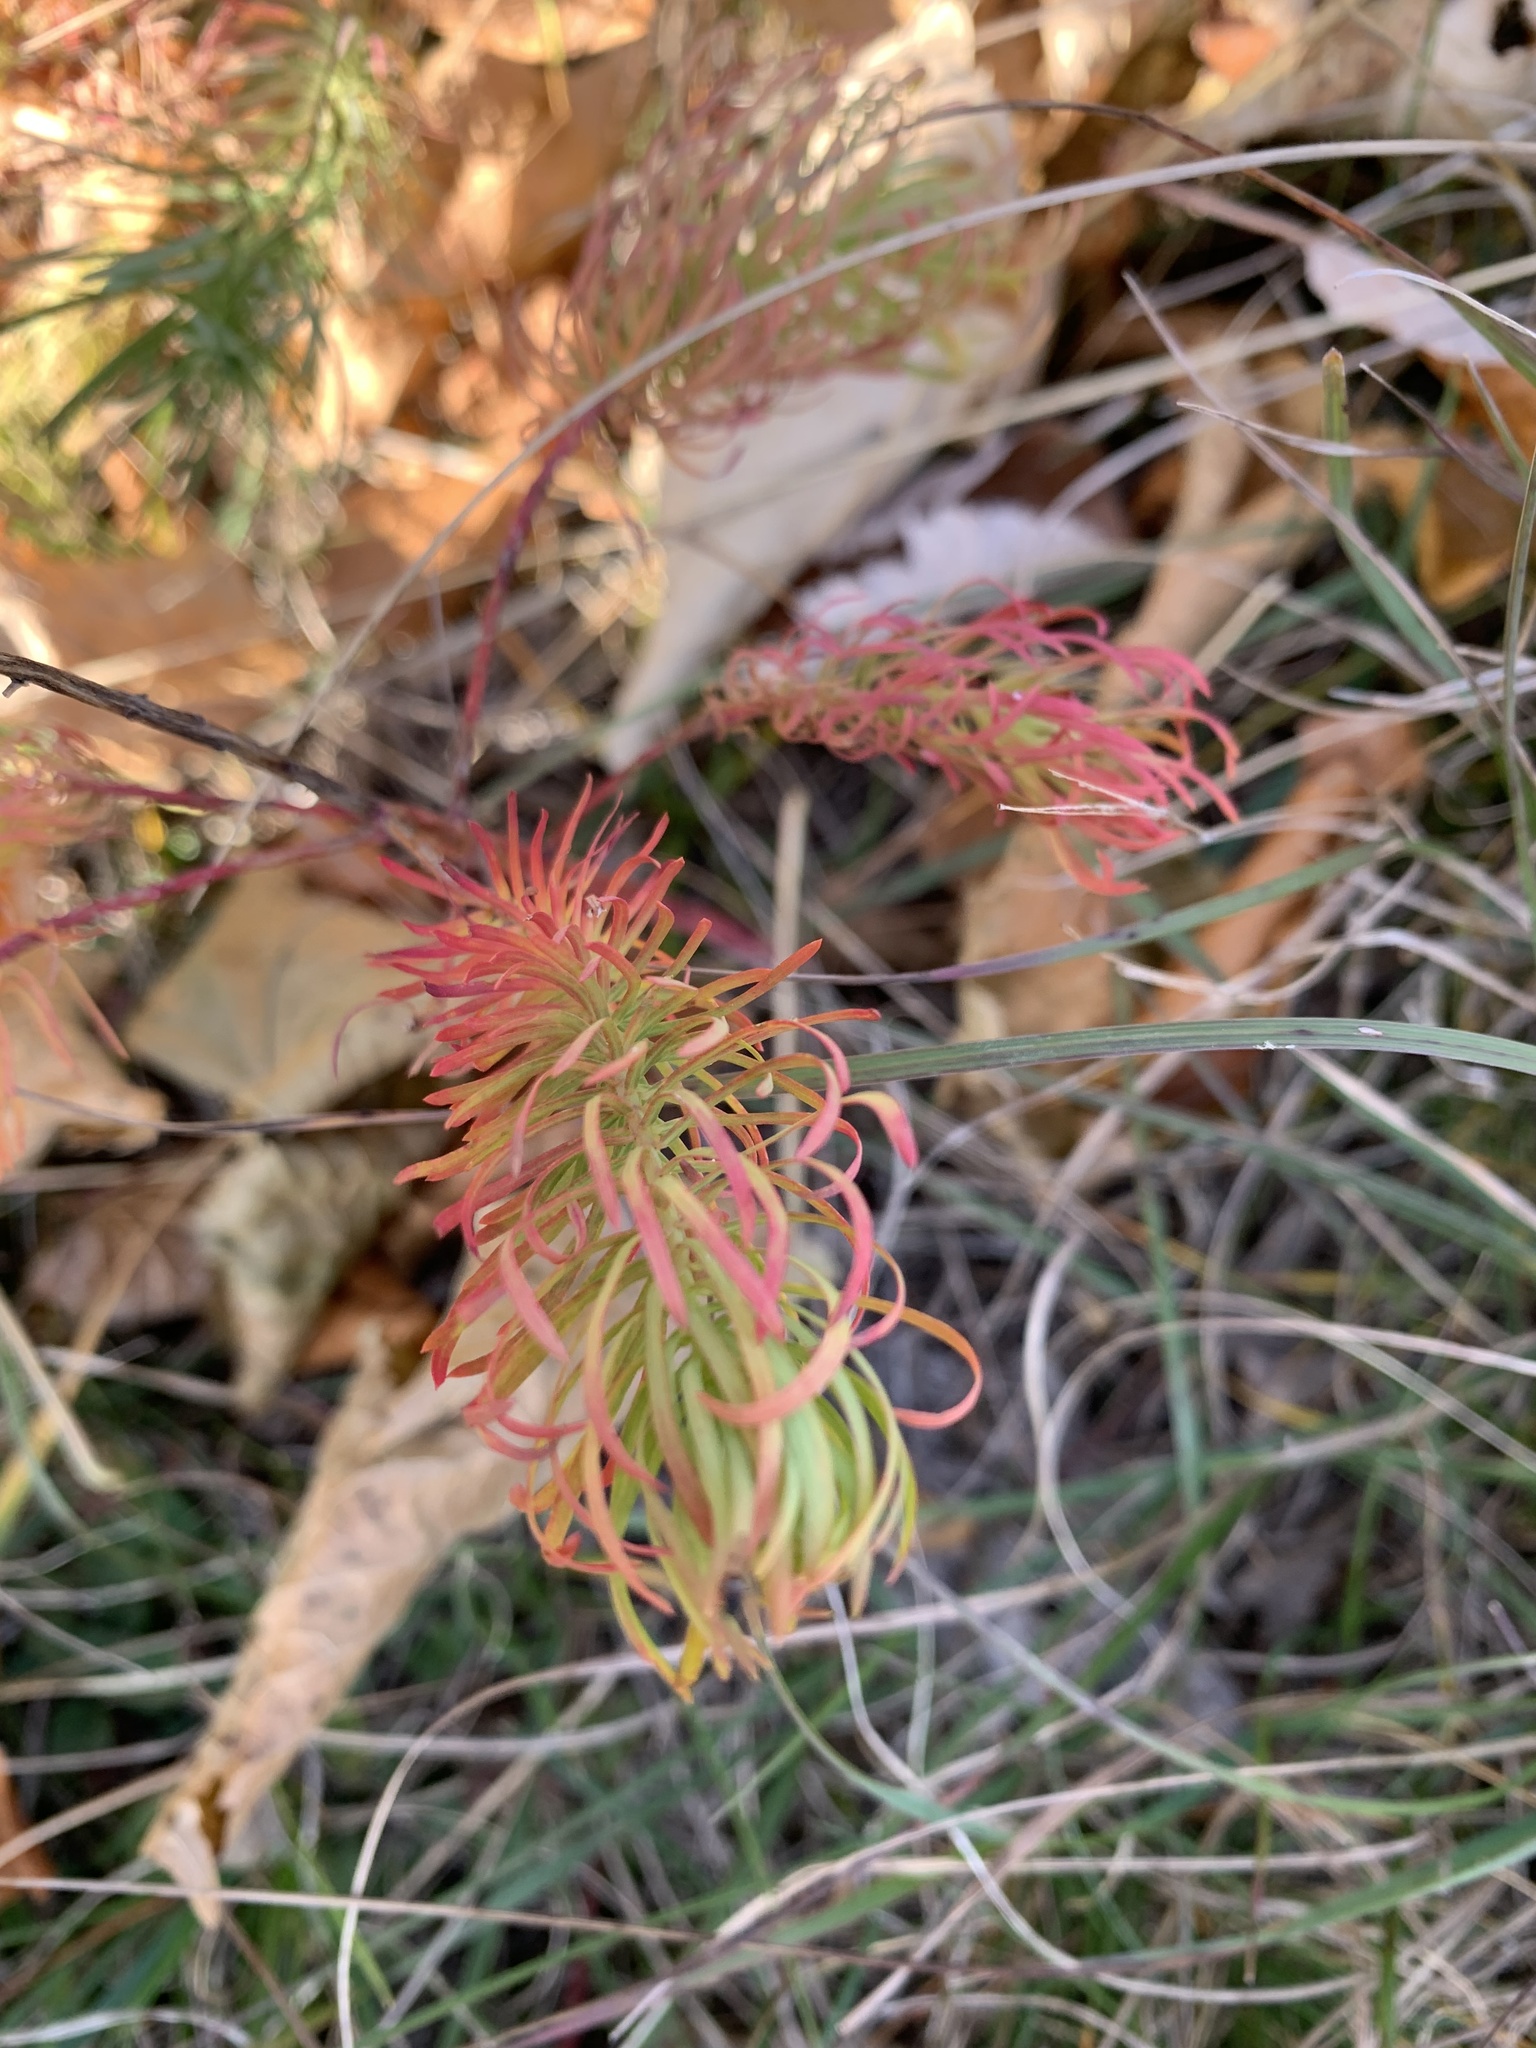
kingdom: Plantae
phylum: Tracheophyta
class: Magnoliopsida
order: Malpighiales
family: Euphorbiaceae
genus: Euphorbia
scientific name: Euphorbia cyparissias
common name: Cypress spurge
